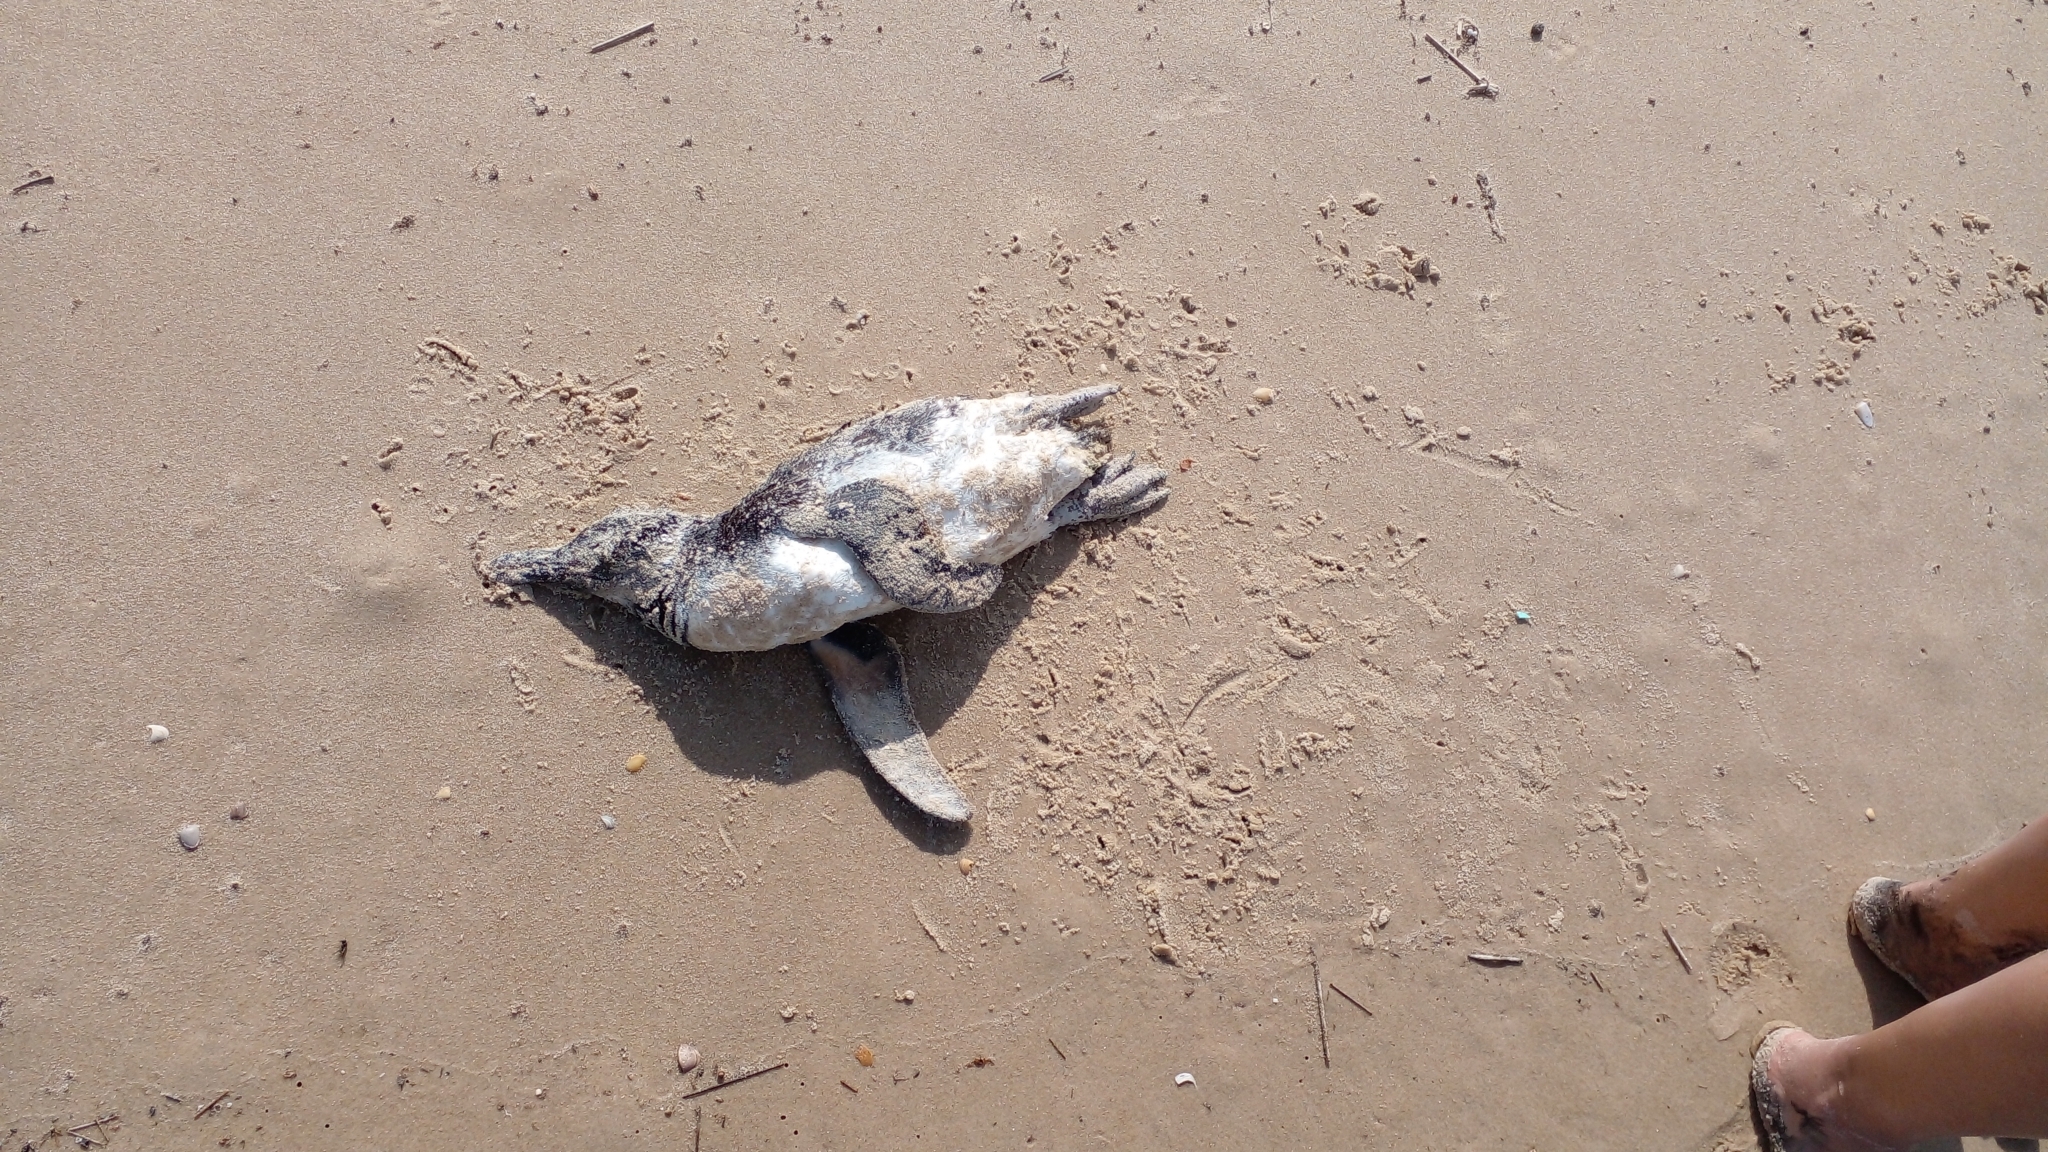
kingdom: Animalia
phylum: Chordata
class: Aves
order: Sphenisciformes
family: Spheniscidae
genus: Spheniscus
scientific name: Spheniscus magellanicus
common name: Magellanic penguin
